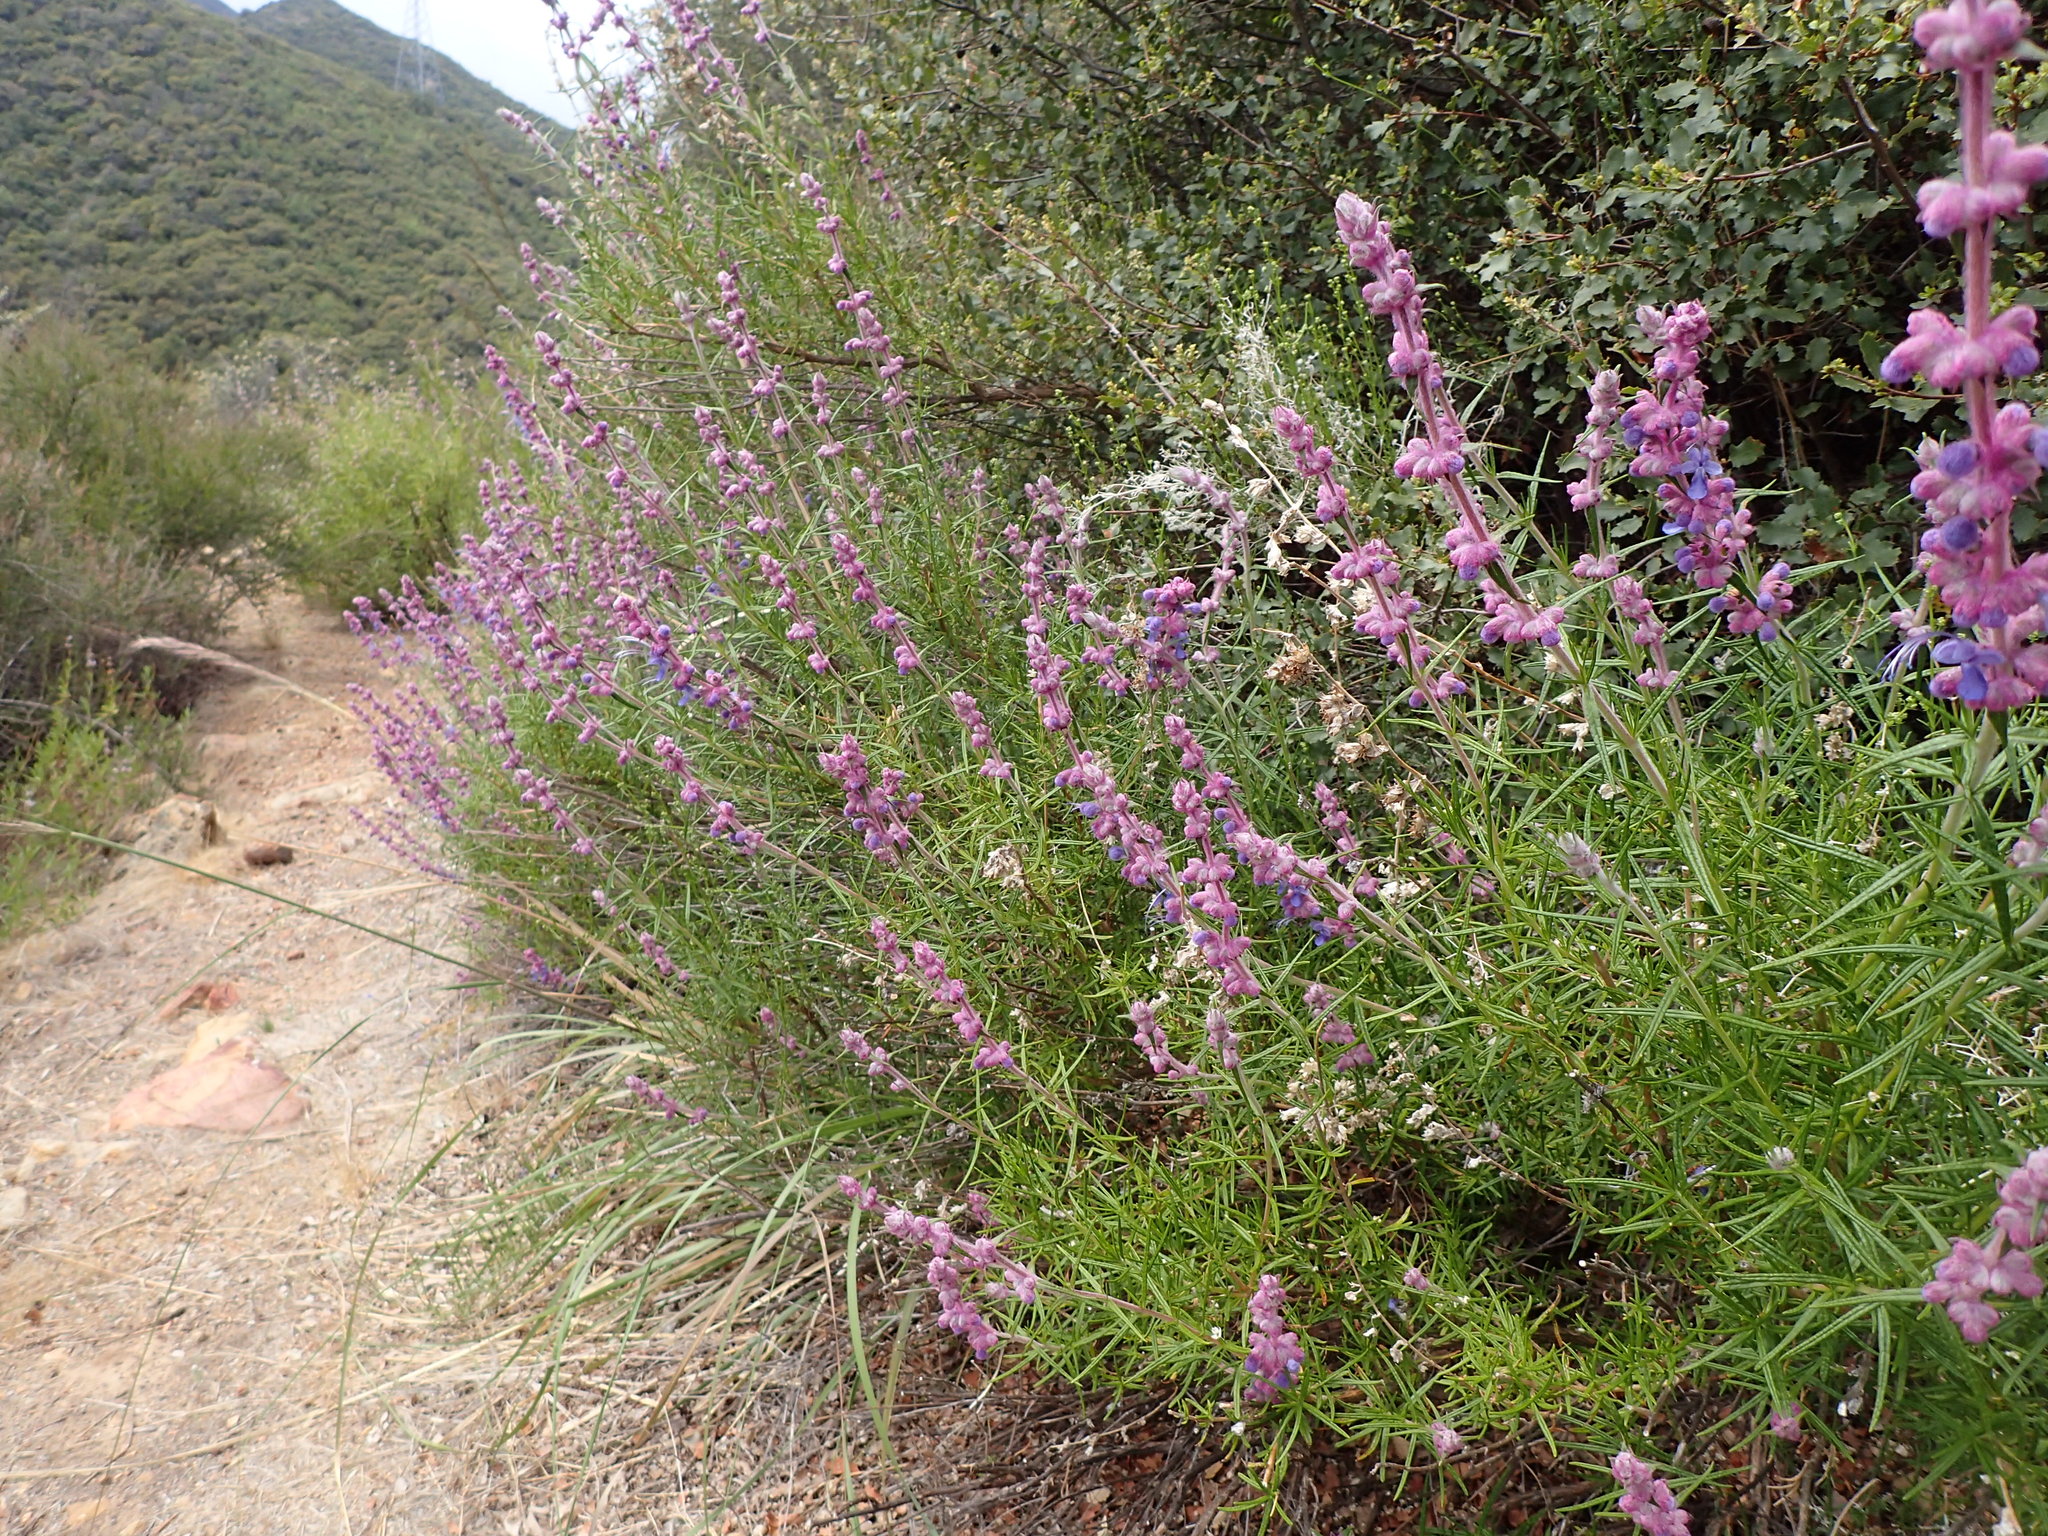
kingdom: Plantae
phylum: Tracheophyta
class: Magnoliopsida
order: Lamiales
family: Lamiaceae
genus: Trichostema
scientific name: Trichostema lanatum
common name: Woolly bluecurls
